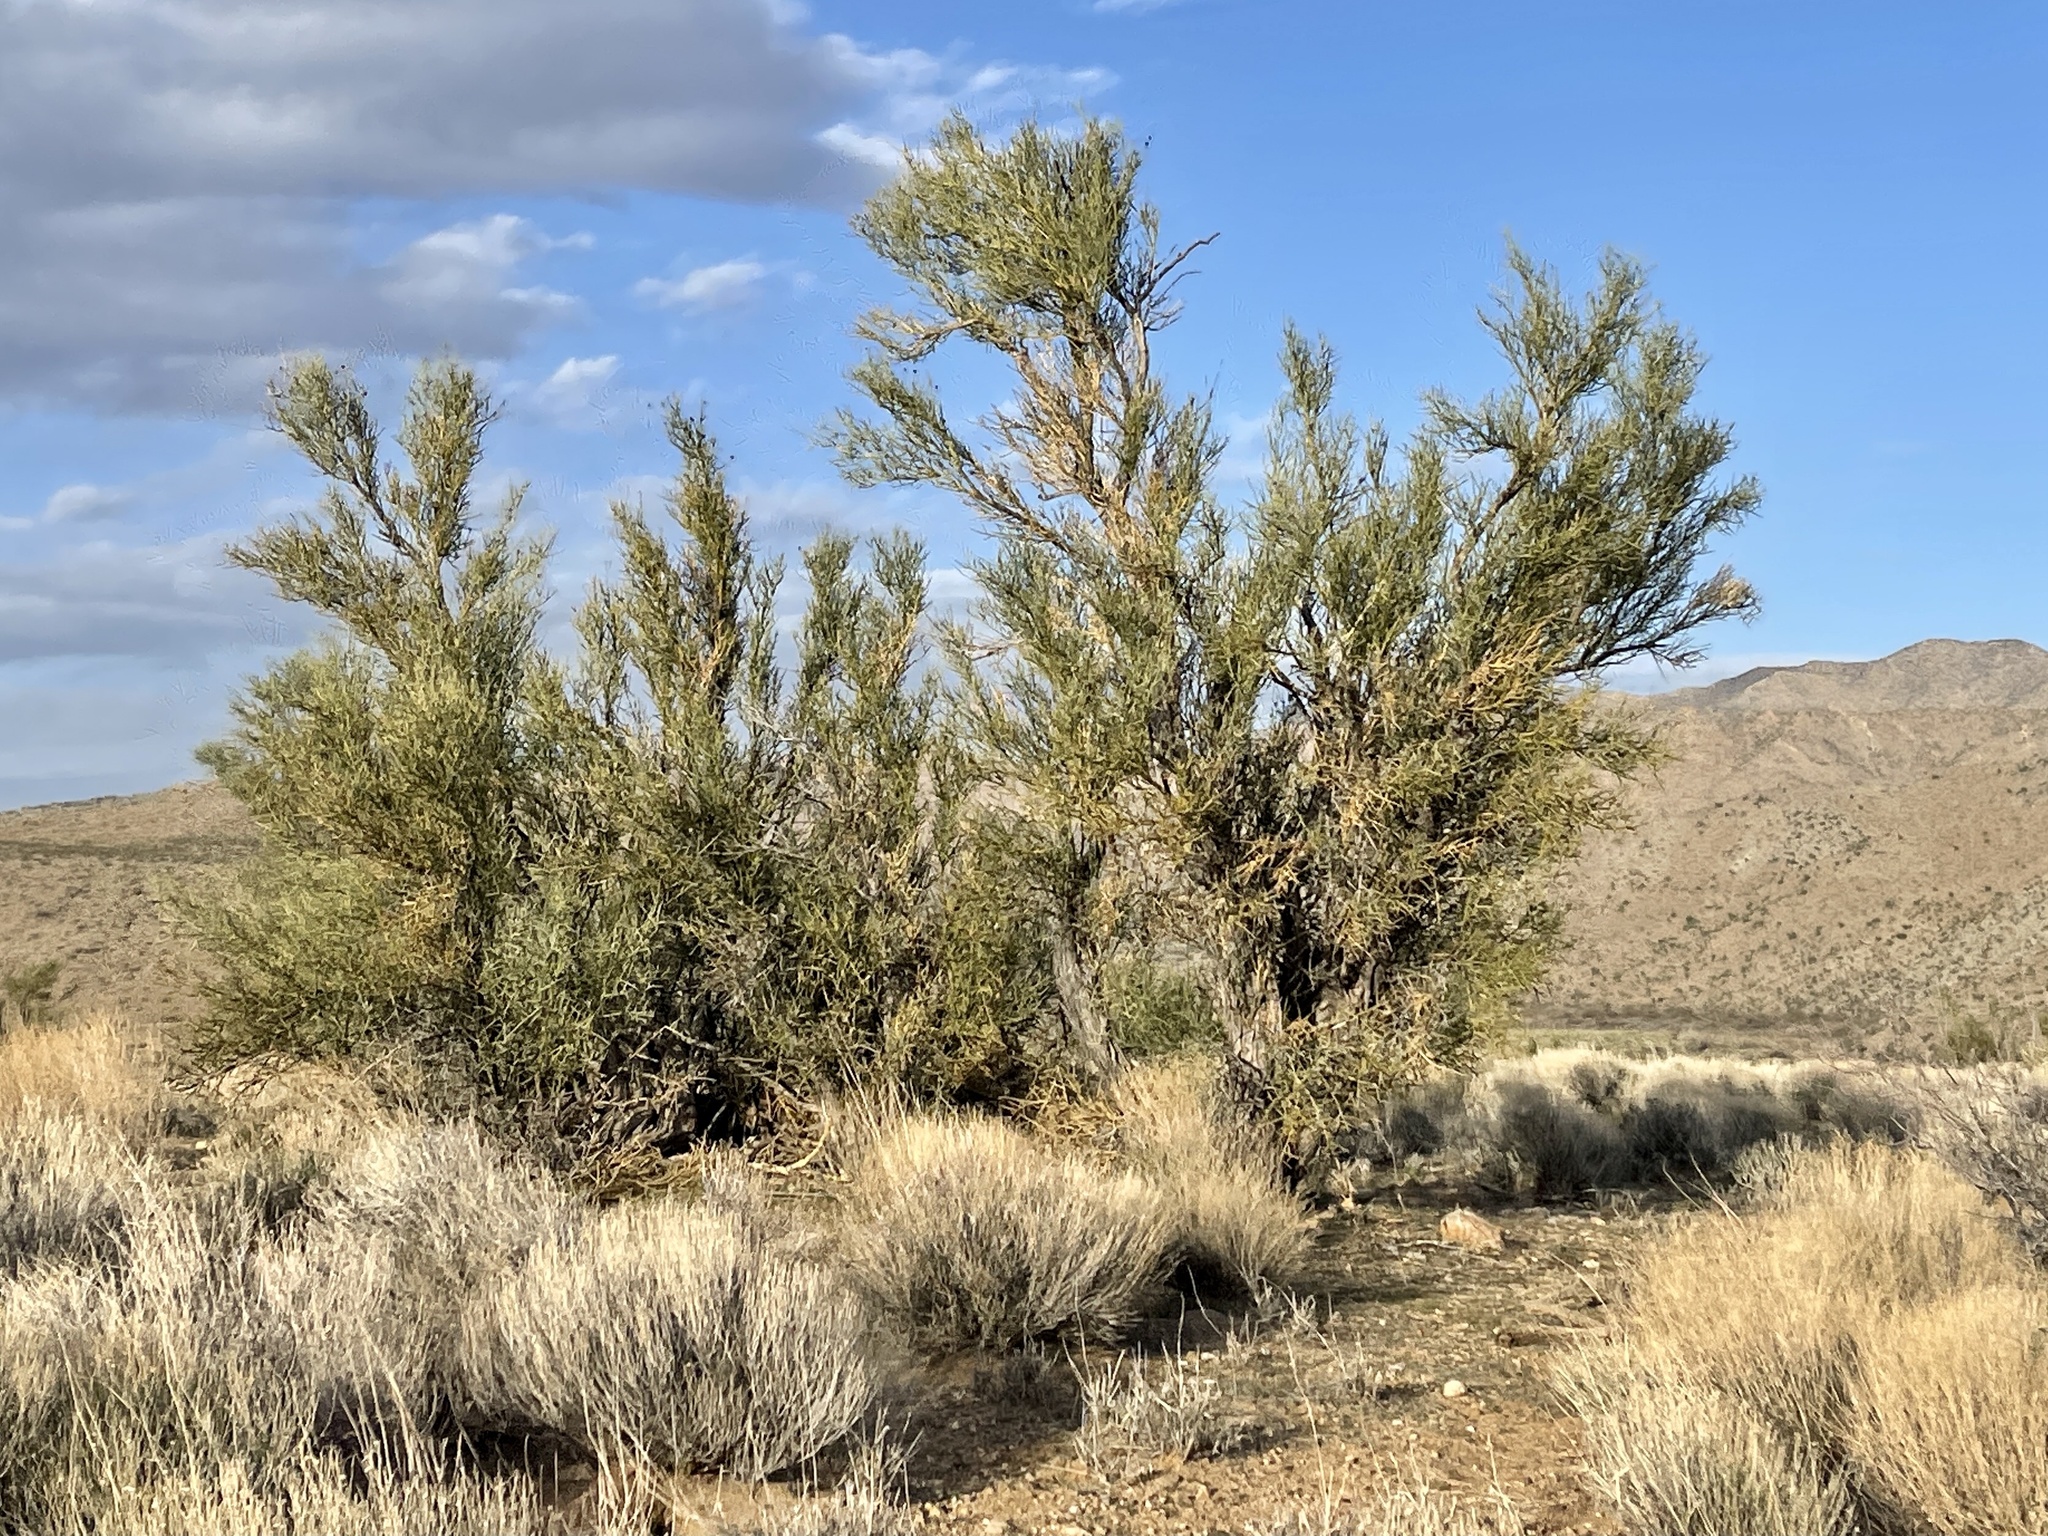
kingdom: Plantae
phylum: Tracheophyta
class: Magnoliopsida
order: Celastrales
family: Celastraceae
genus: Canotia
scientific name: Canotia holacantha
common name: Crucifixion thorns
